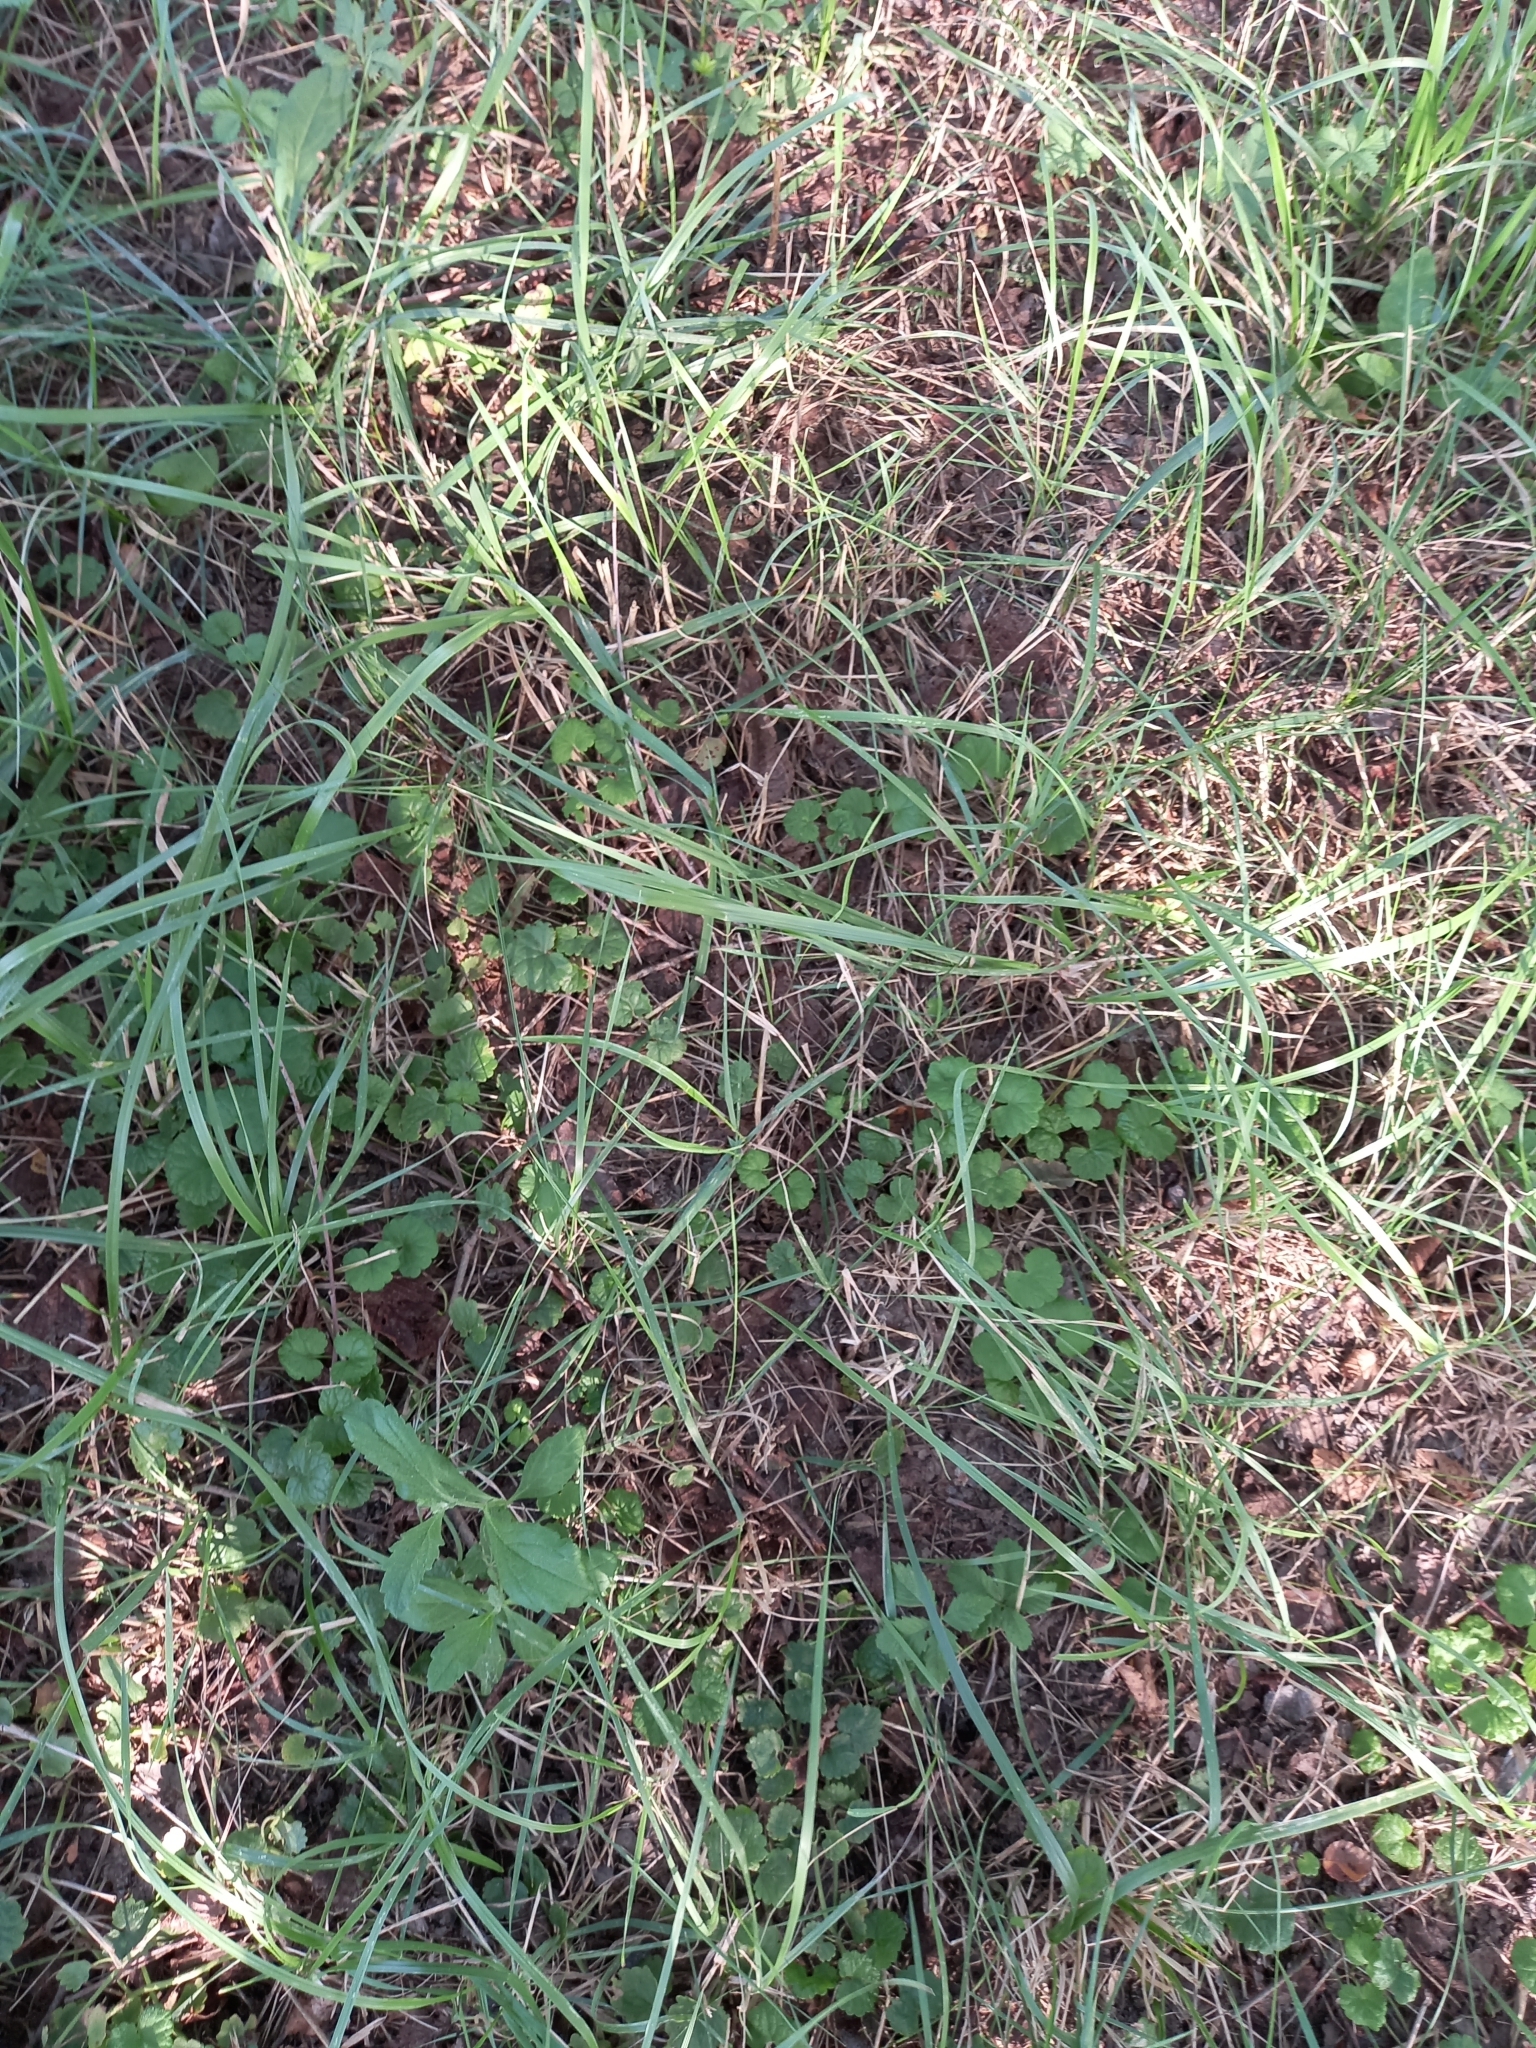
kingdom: Plantae
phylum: Tracheophyta
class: Magnoliopsida
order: Lamiales
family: Lamiaceae
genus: Glechoma
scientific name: Glechoma hederacea
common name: Ground ivy
